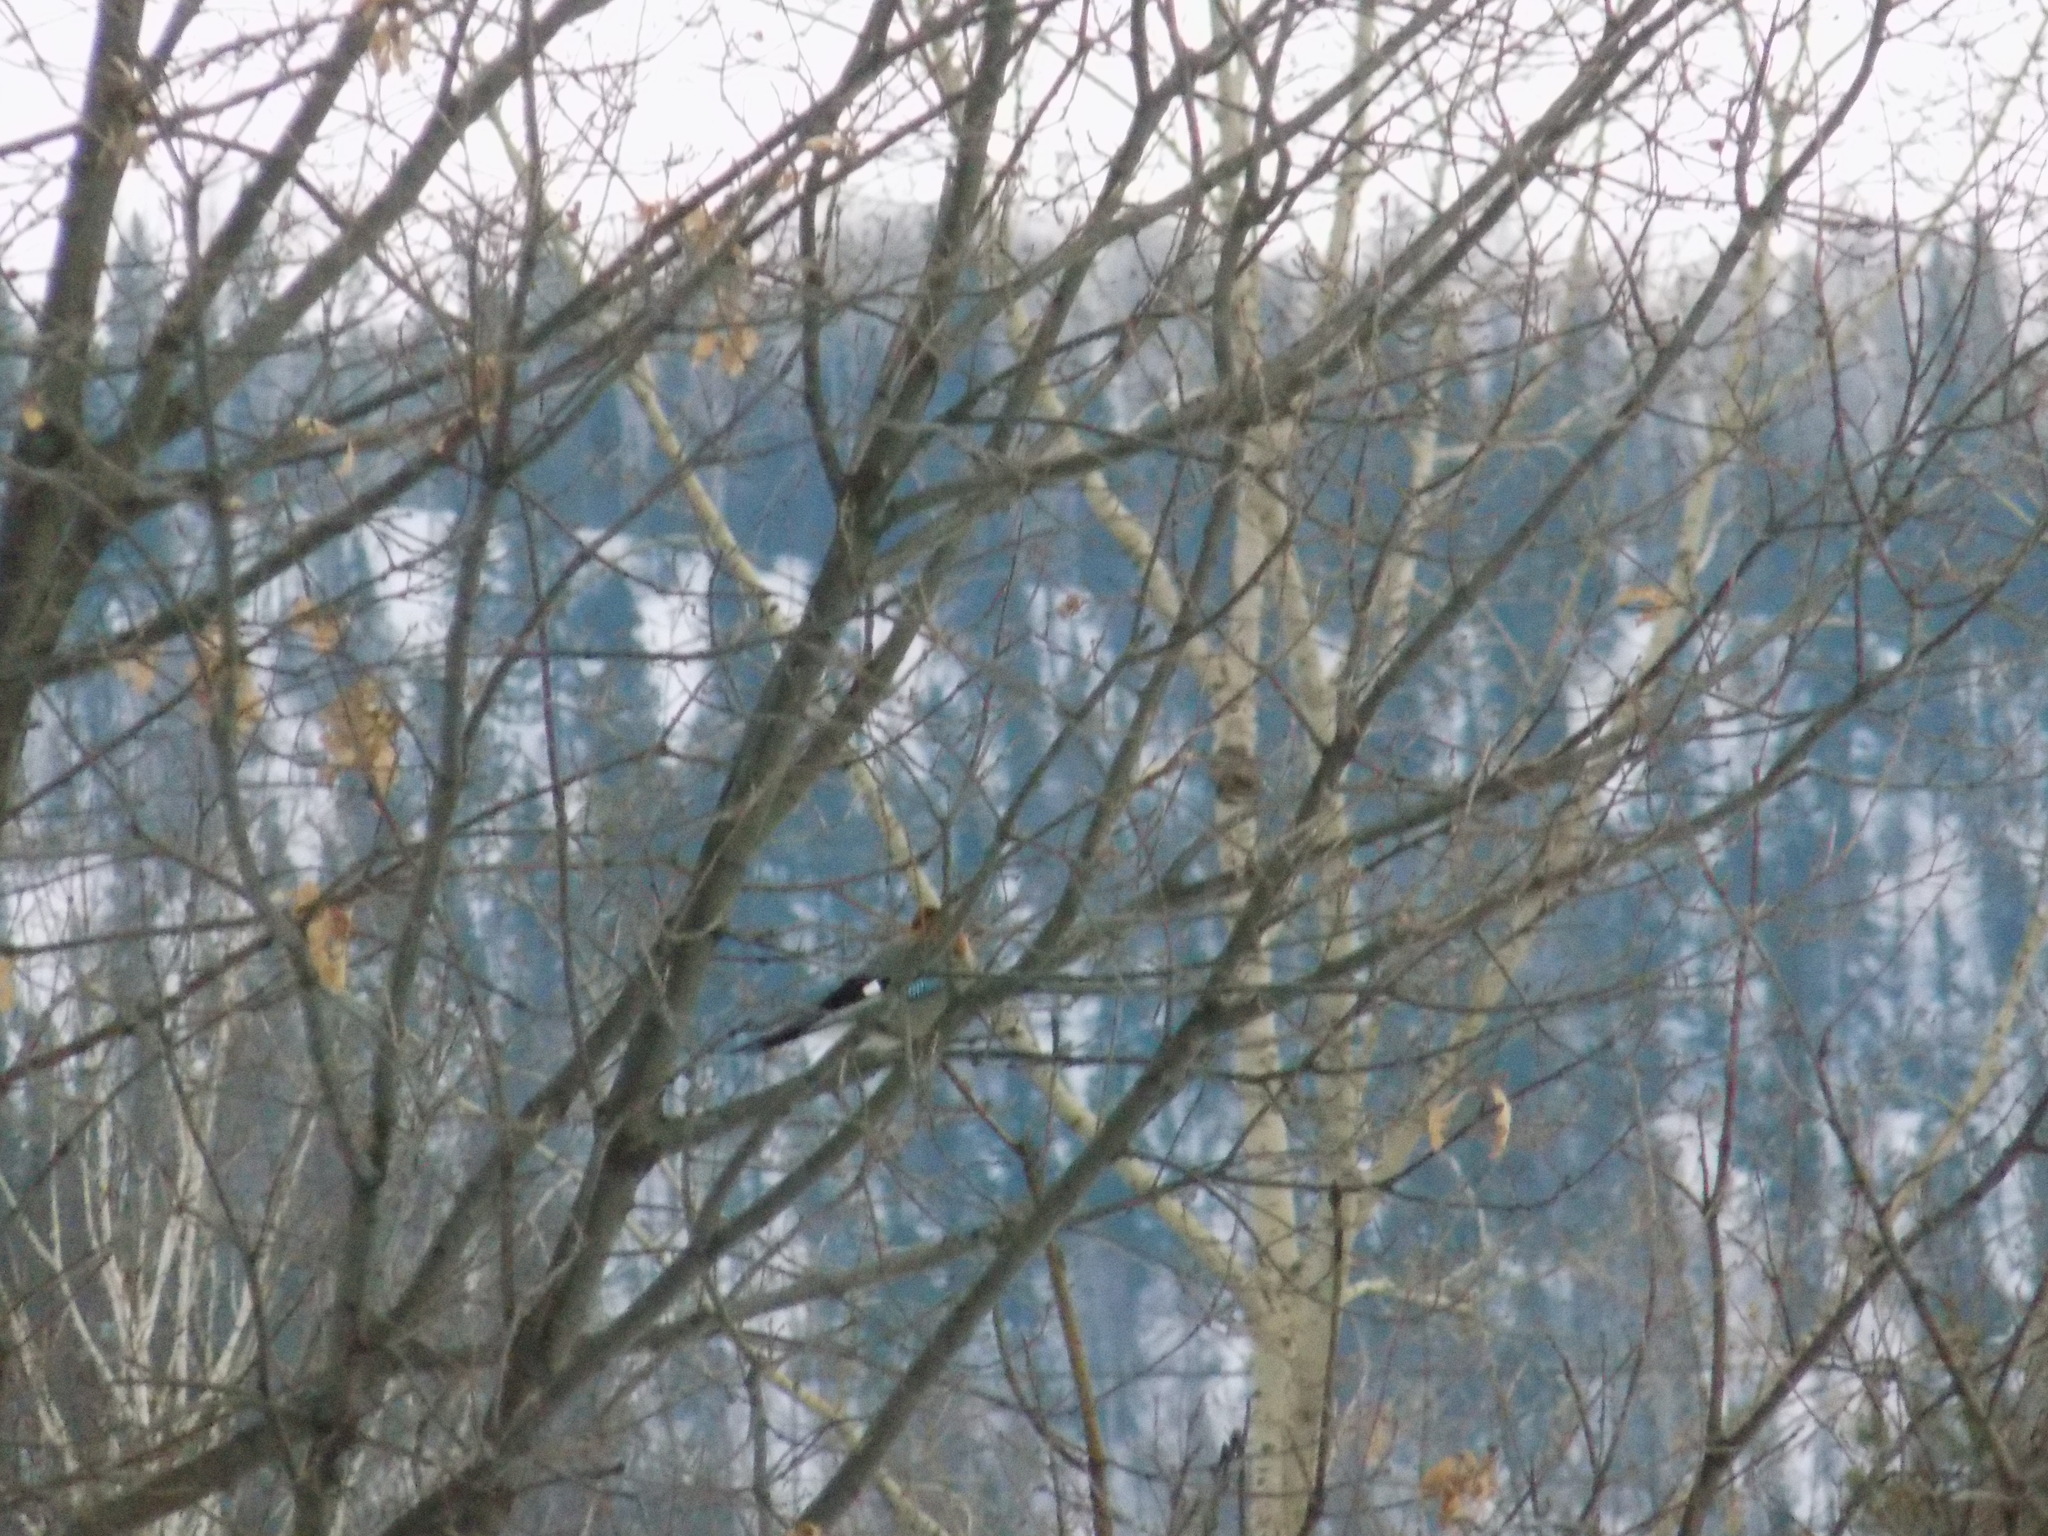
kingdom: Animalia
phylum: Chordata
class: Aves
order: Passeriformes
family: Corvidae
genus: Garrulus
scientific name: Garrulus glandarius
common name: Eurasian jay
